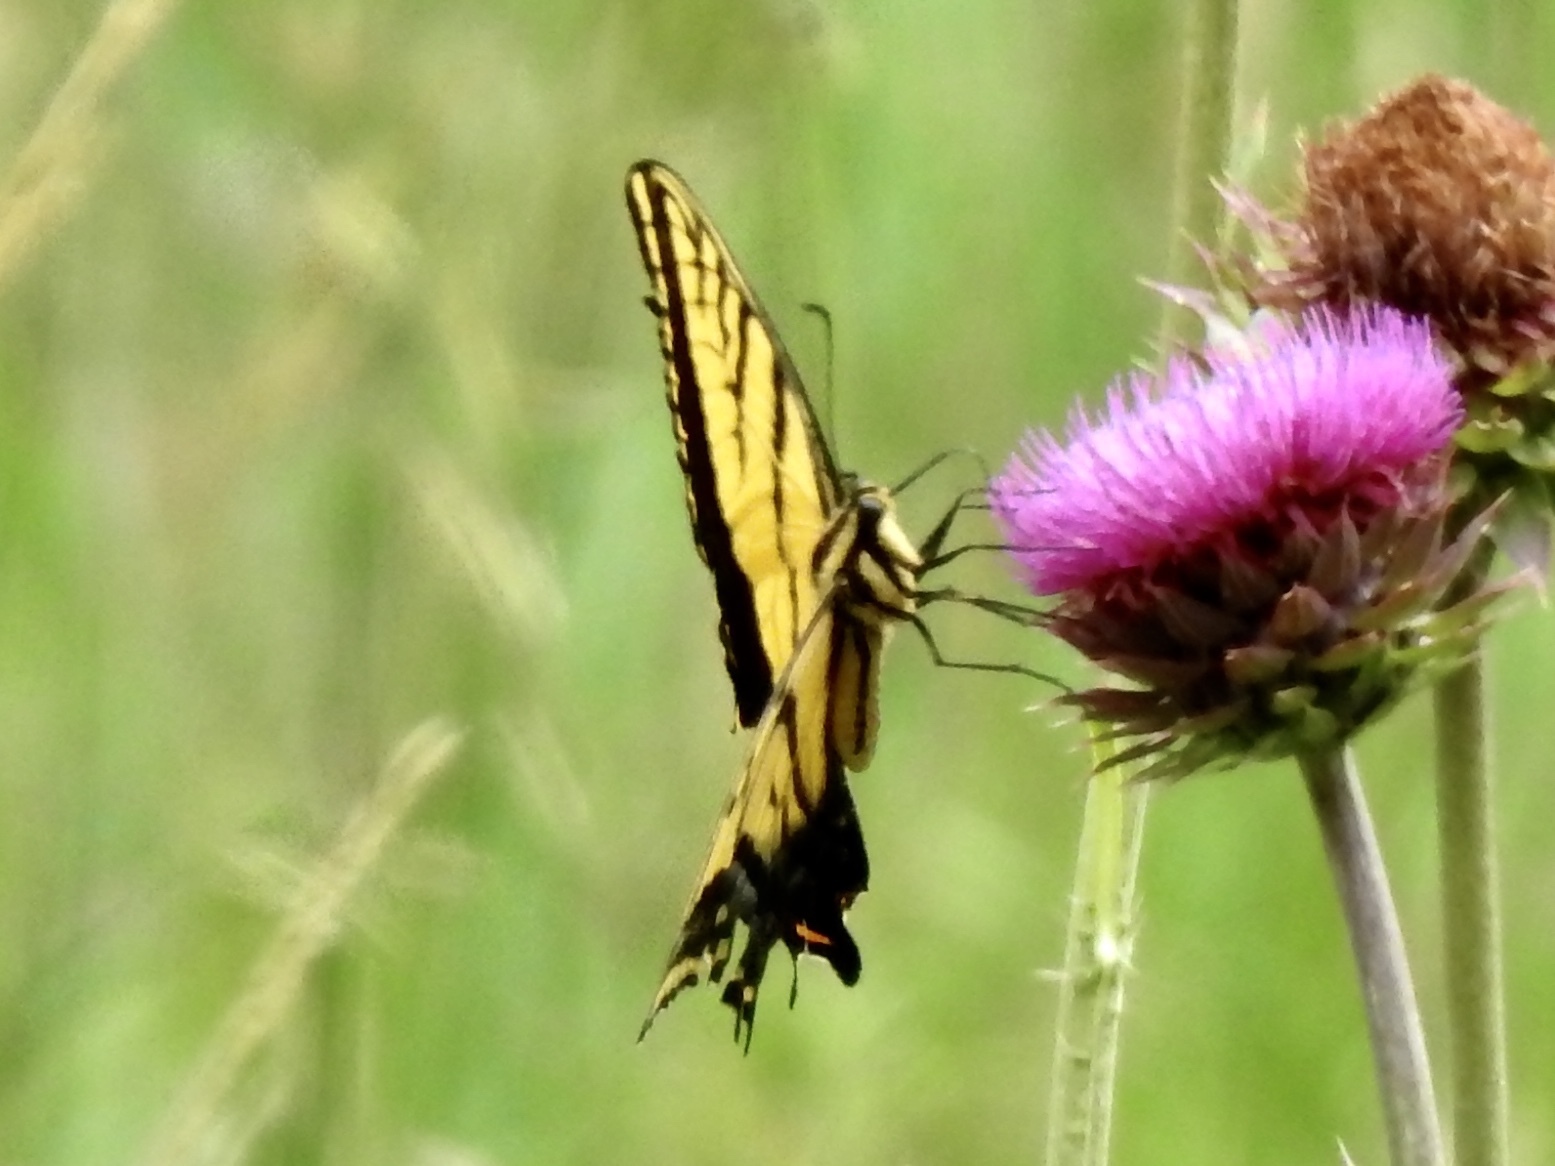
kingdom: Animalia
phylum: Arthropoda
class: Insecta
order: Lepidoptera
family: Papilionidae
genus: Papilio
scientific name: Papilio multicaudata
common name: Two-tailed tiger swallowtail
